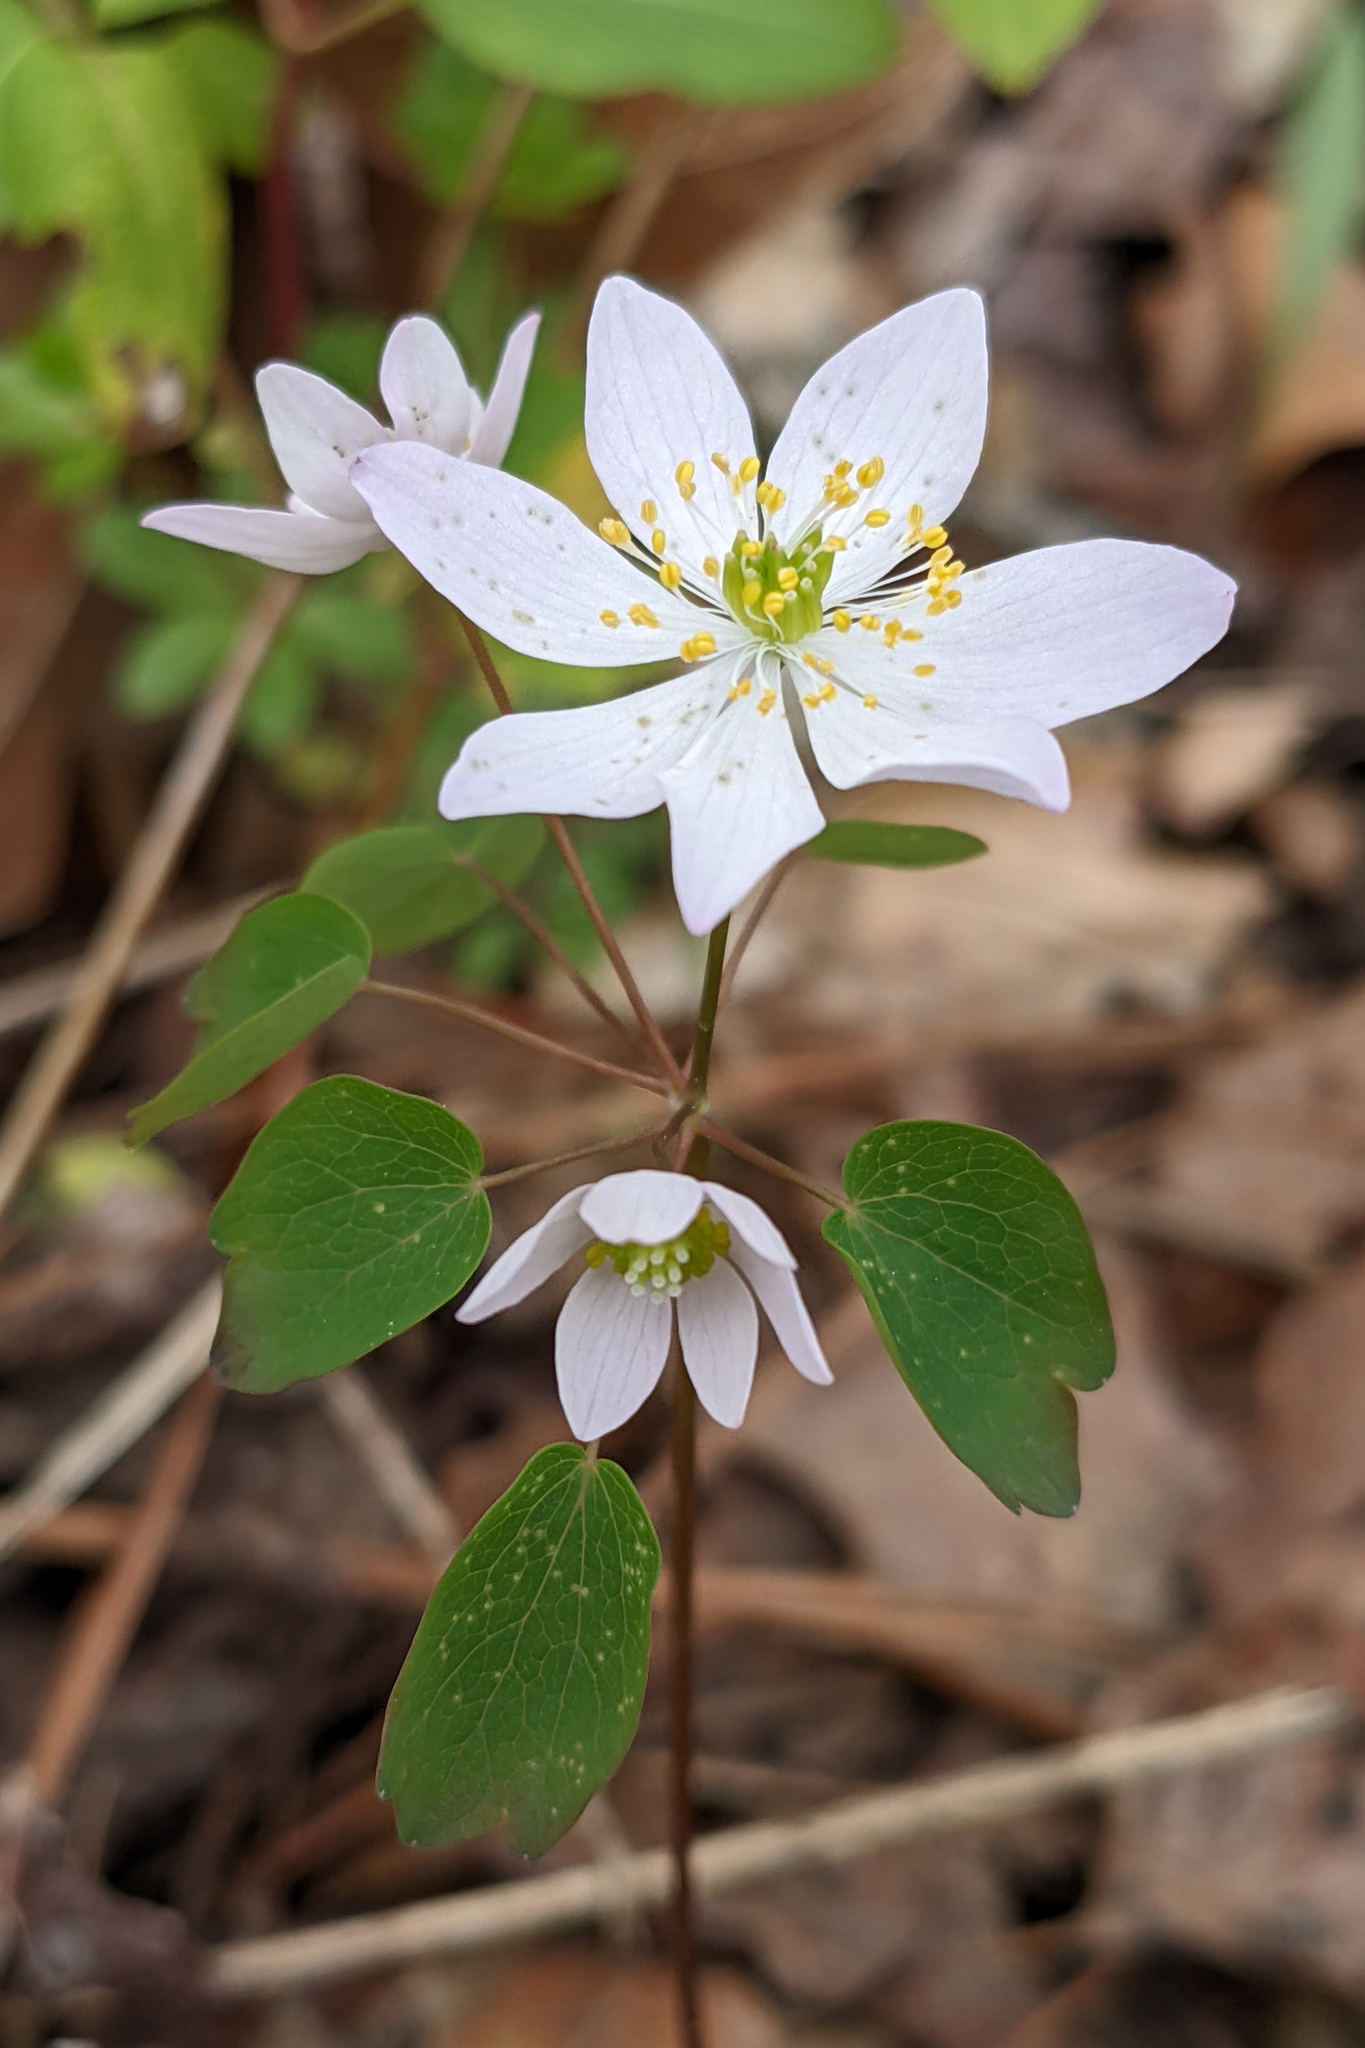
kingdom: Plantae
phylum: Tracheophyta
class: Magnoliopsida
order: Ranunculales
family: Ranunculaceae
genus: Thalictrum
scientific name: Thalictrum thalictroides
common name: Rue-anemone
